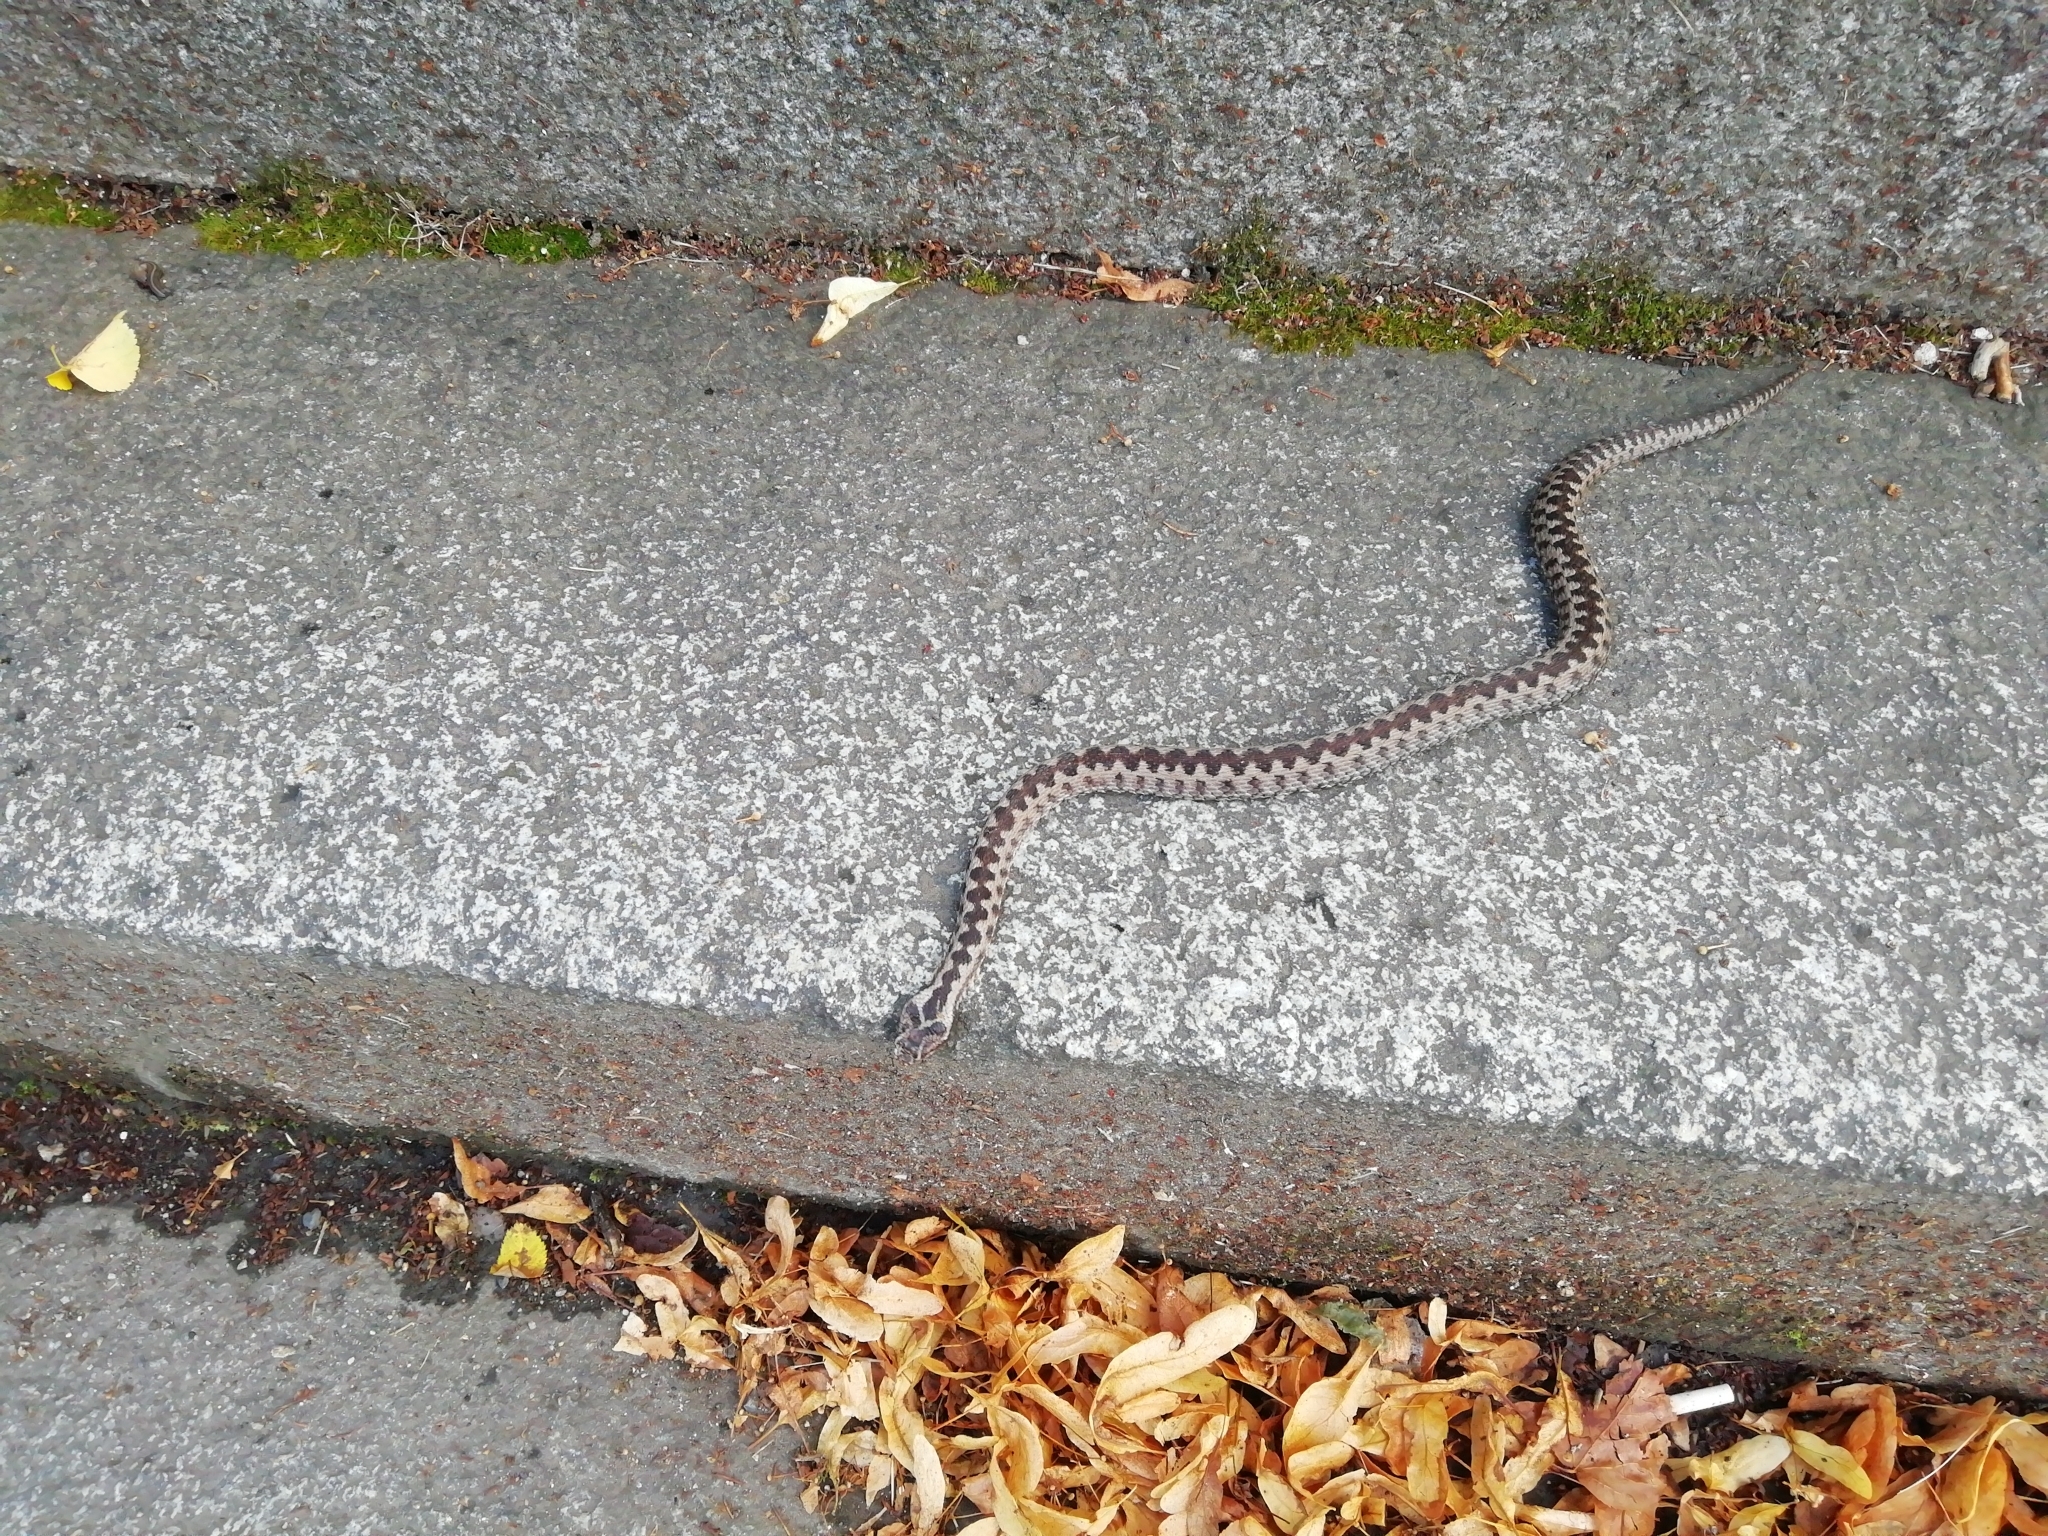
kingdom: Animalia
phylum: Chordata
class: Squamata
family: Viperidae
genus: Vipera
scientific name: Vipera berus
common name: Adder
